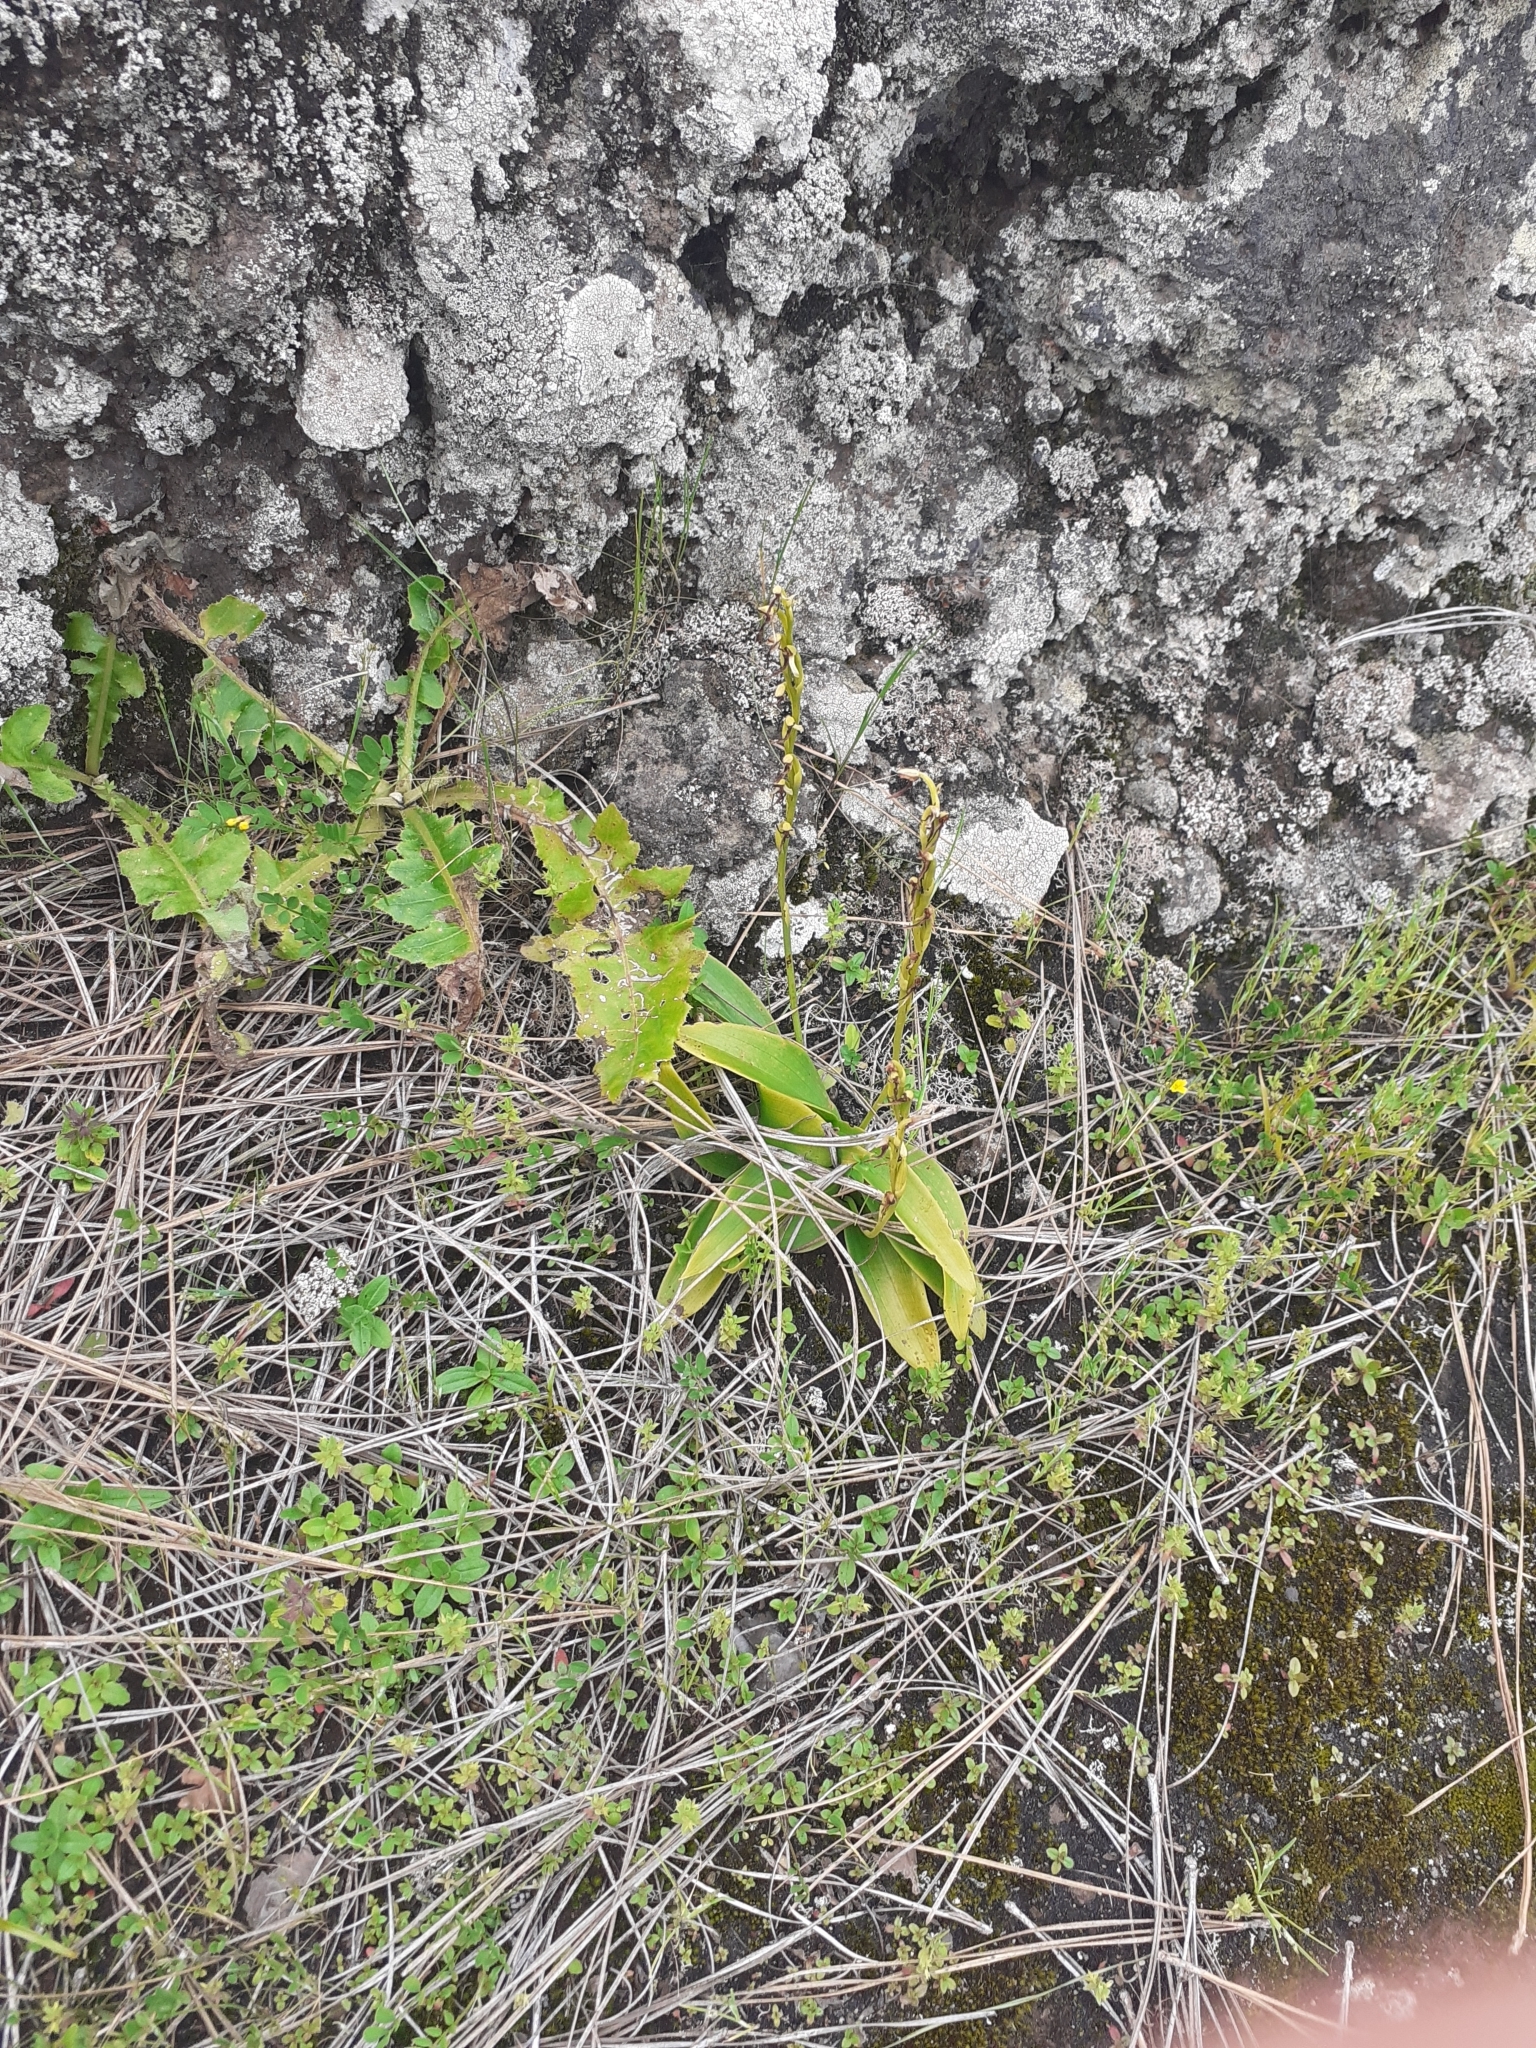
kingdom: Plantae
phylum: Tracheophyta
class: Liliopsida
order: Asparagales
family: Orchidaceae
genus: Habenaria
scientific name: Habenaria tridactylites
